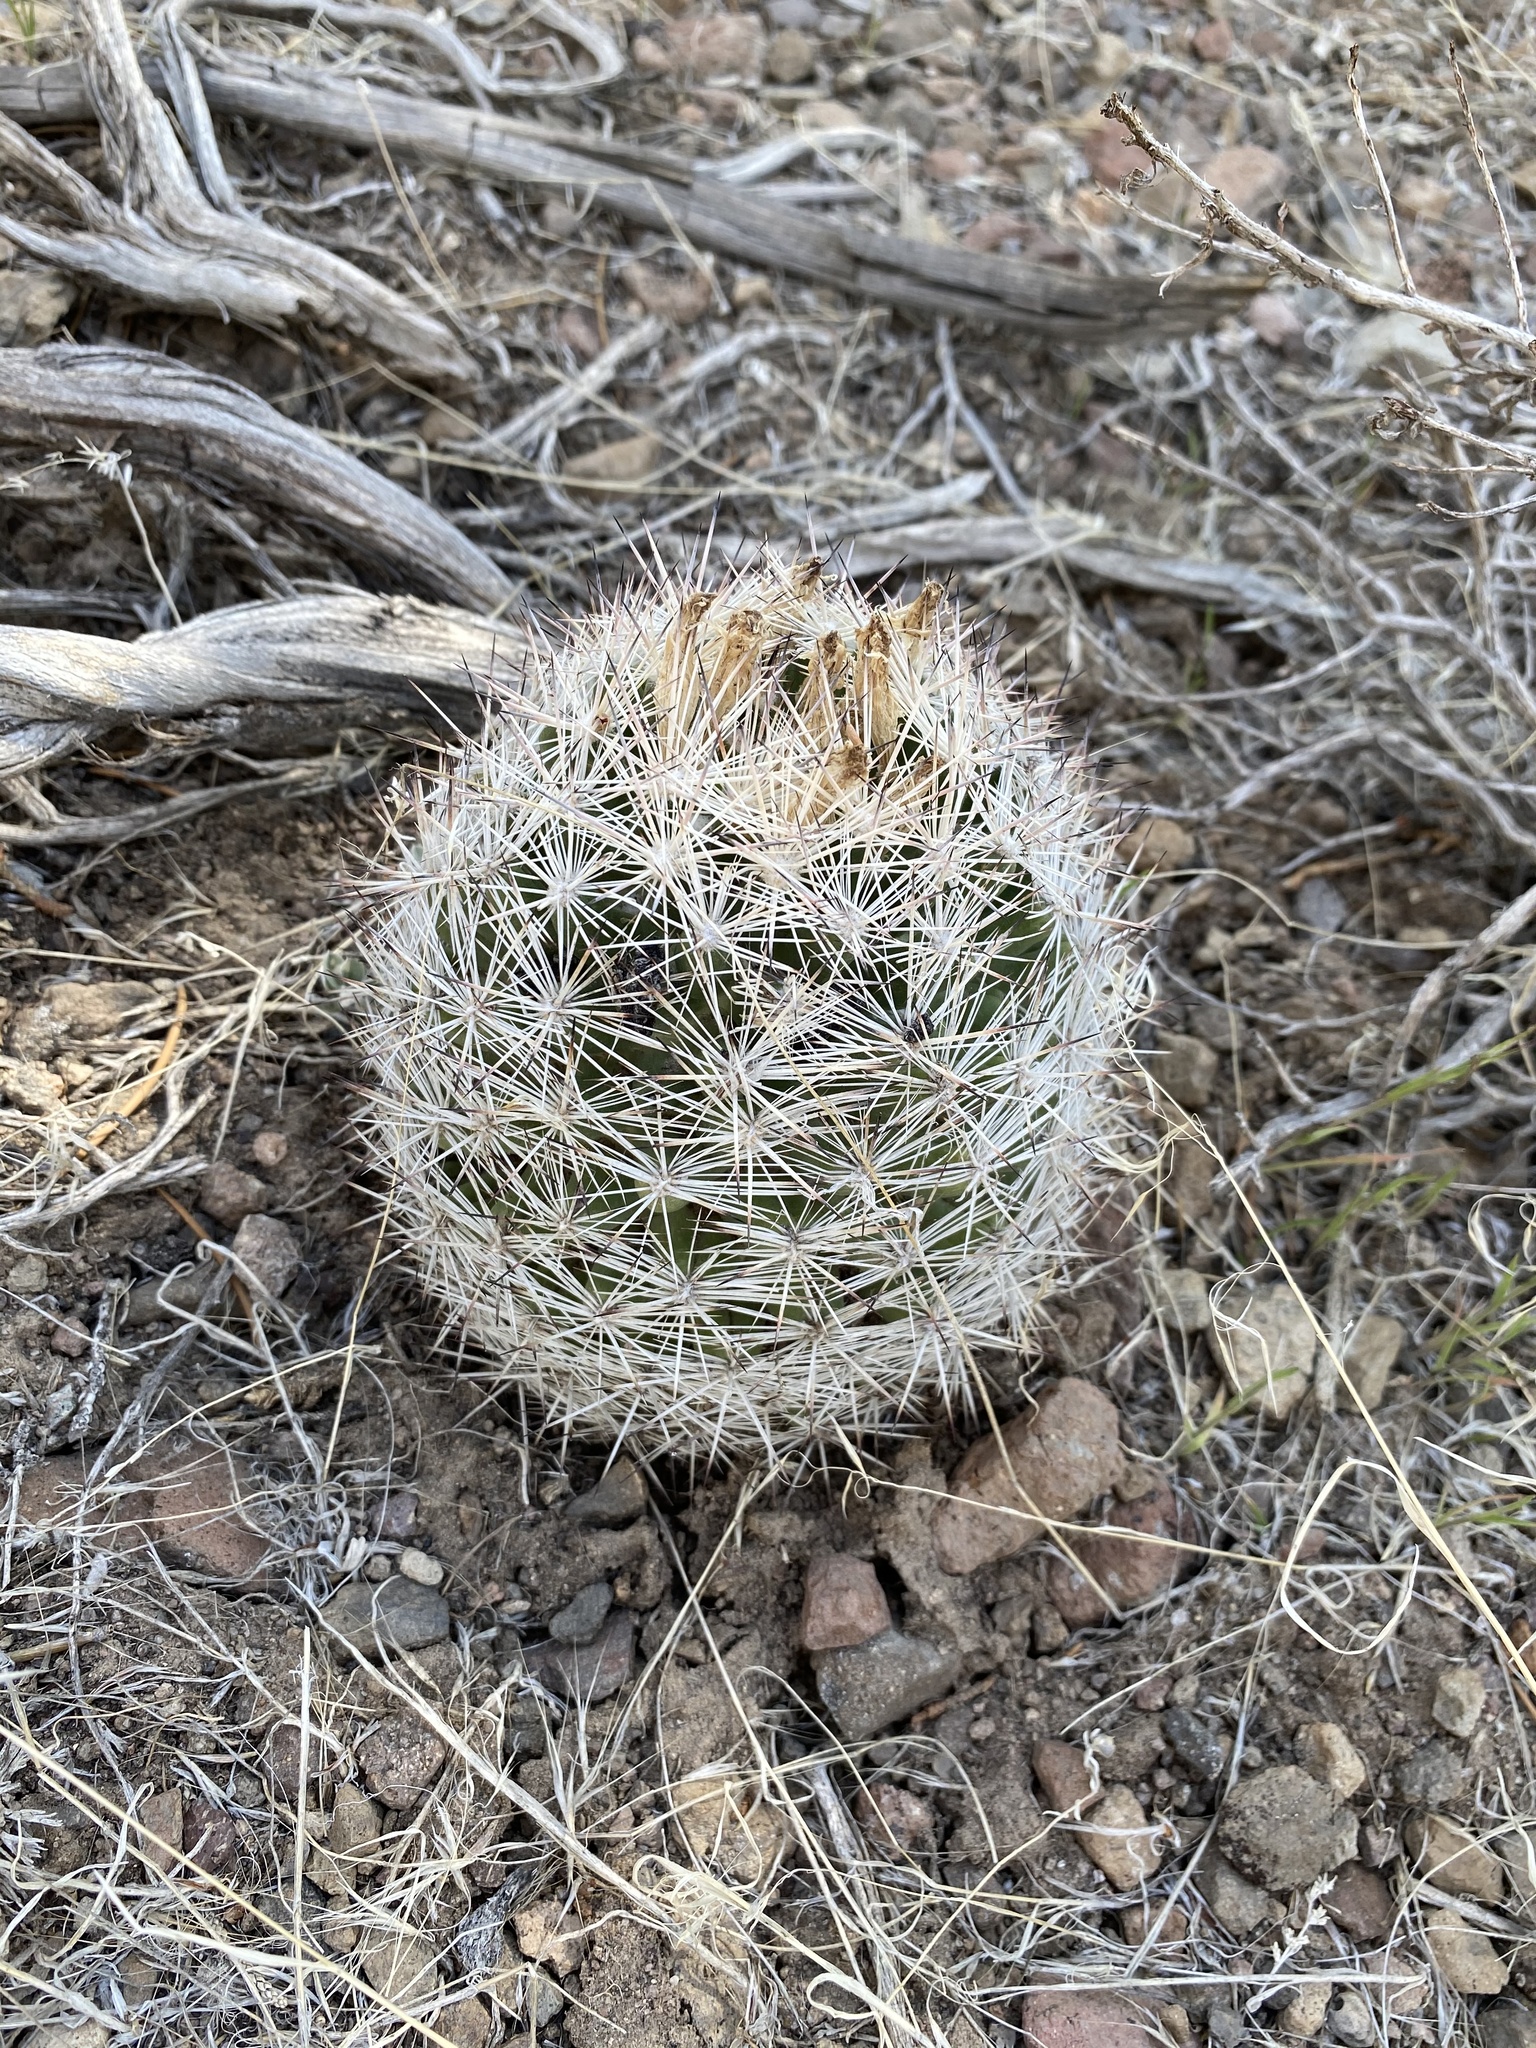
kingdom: Plantae
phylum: Tracheophyta
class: Magnoliopsida
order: Caryophyllales
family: Cactaceae
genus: Pelecyphora
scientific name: Pelecyphora vivipara
